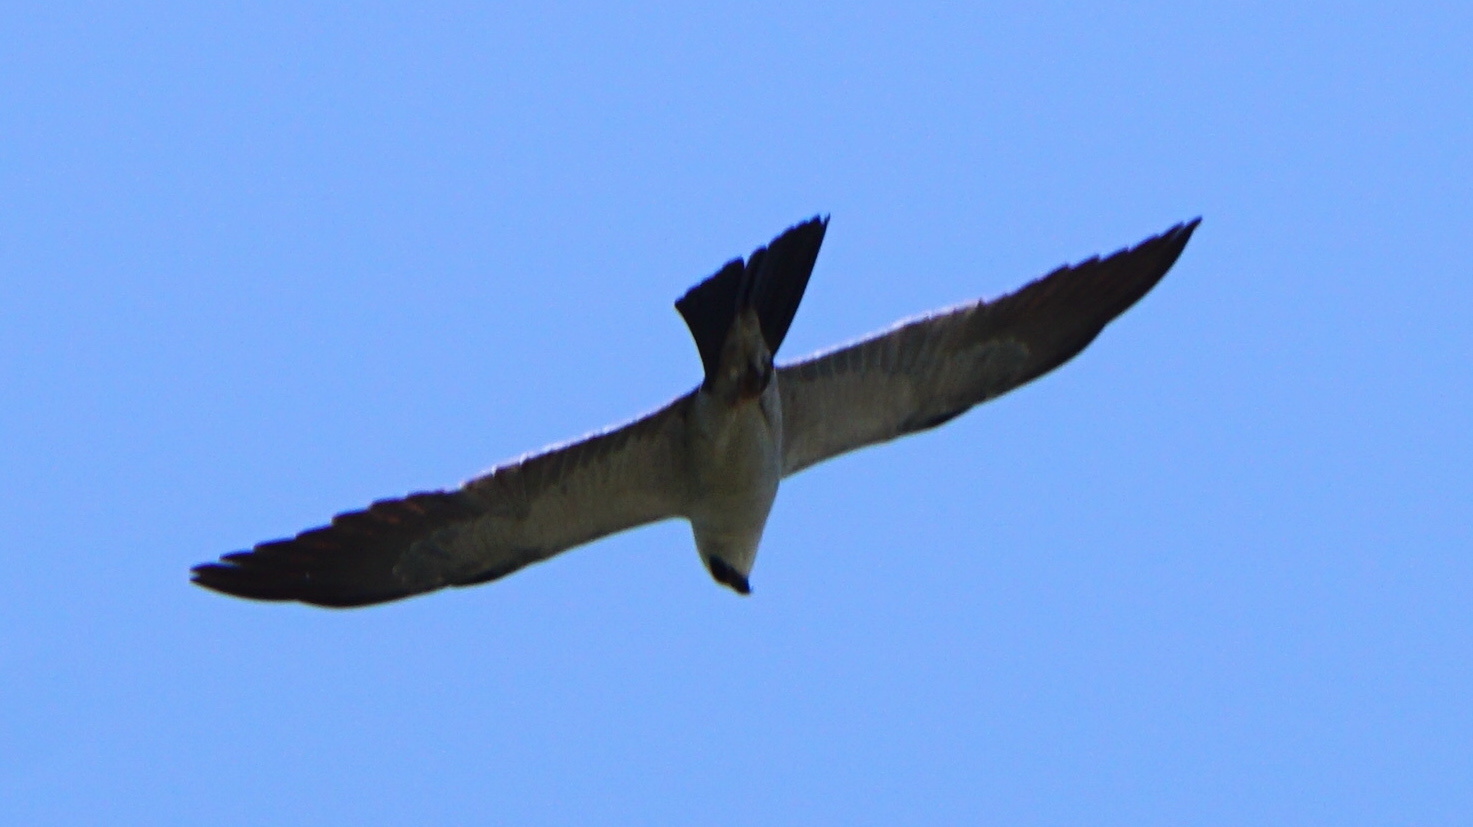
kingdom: Animalia
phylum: Chordata
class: Aves
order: Accipitriformes
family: Accipitridae
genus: Ictinia
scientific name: Ictinia mississippiensis
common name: Mississippi kite
